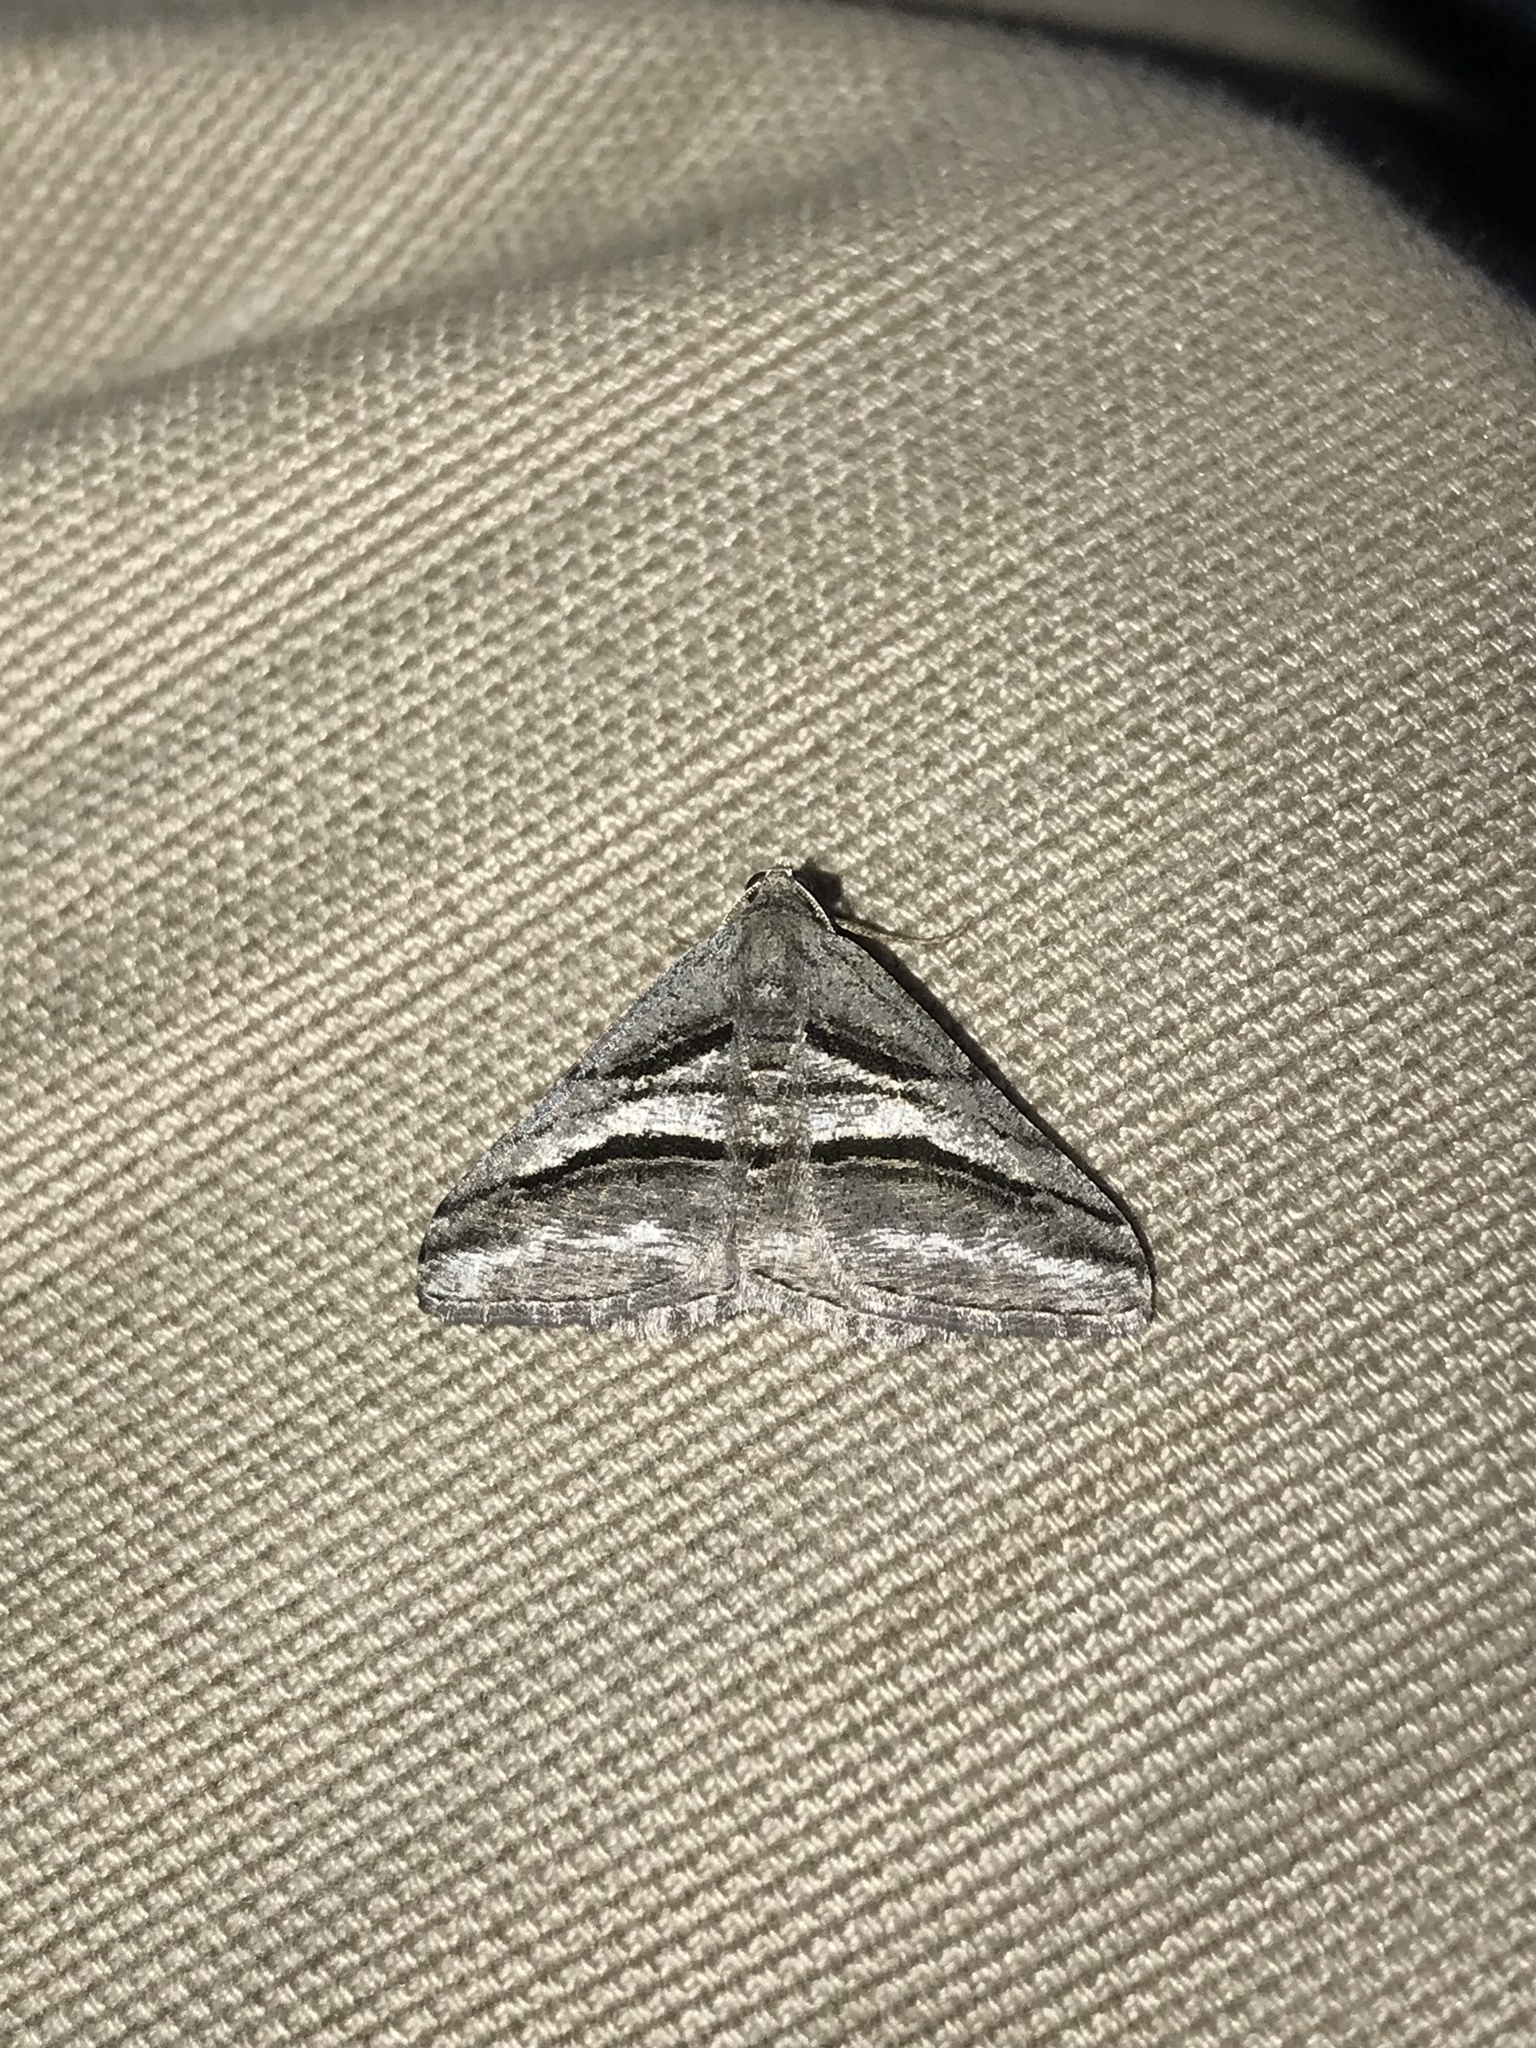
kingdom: Animalia
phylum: Arthropoda
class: Insecta
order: Lepidoptera
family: Geometridae
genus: Digrammia
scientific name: Digrammia atrofasciata
